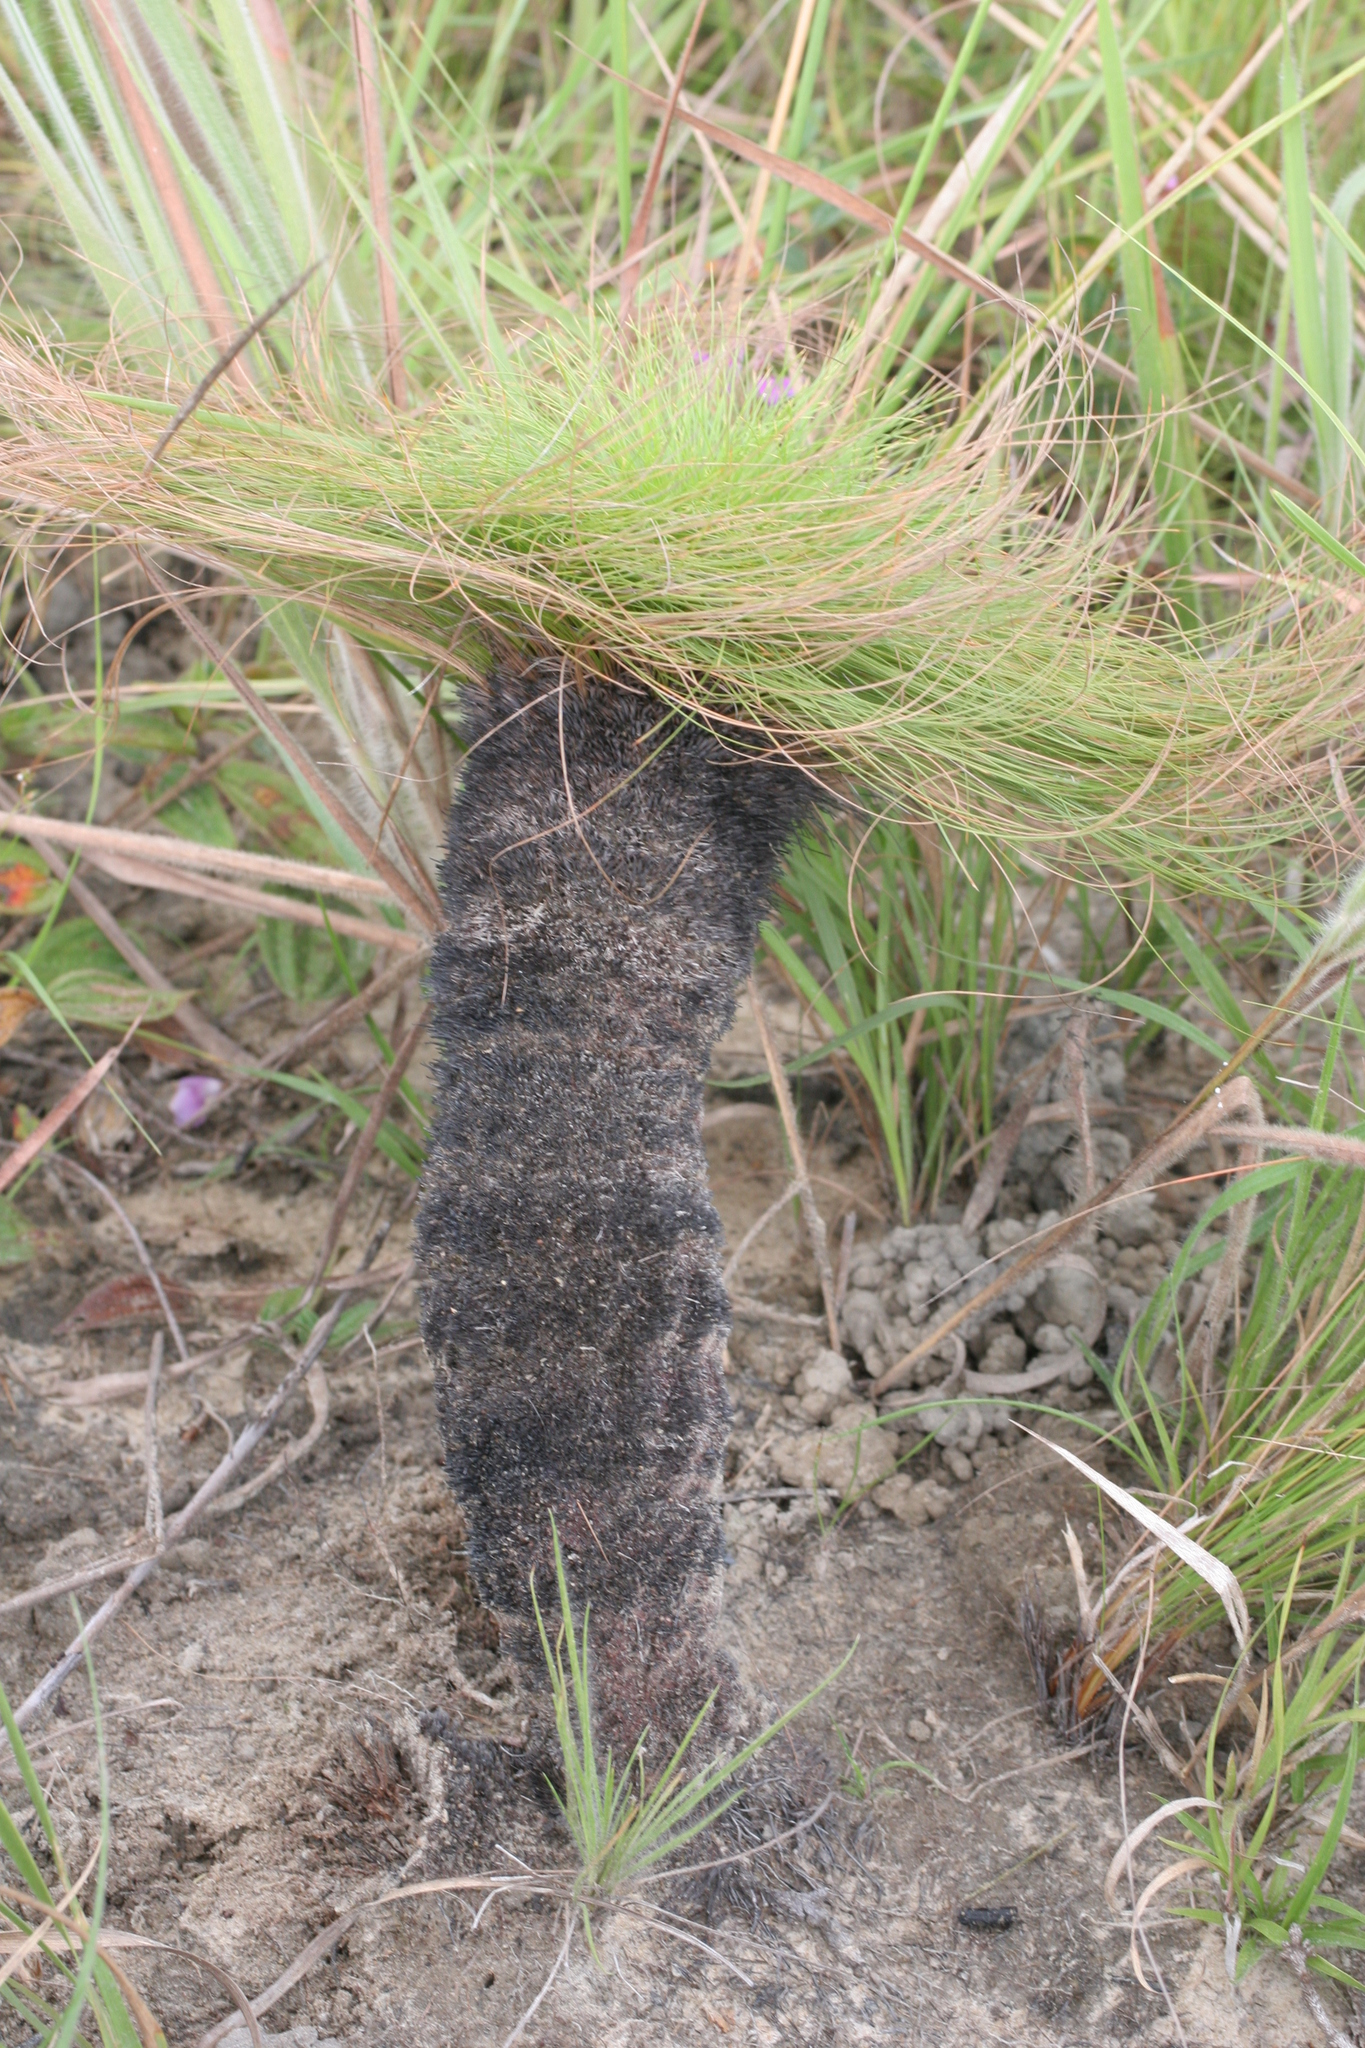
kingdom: Plantae
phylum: Tracheophyta
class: Liliopsida
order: Poales
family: Cyperaceae
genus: Bulbostylis
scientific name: Bulbostylis paradoxa
